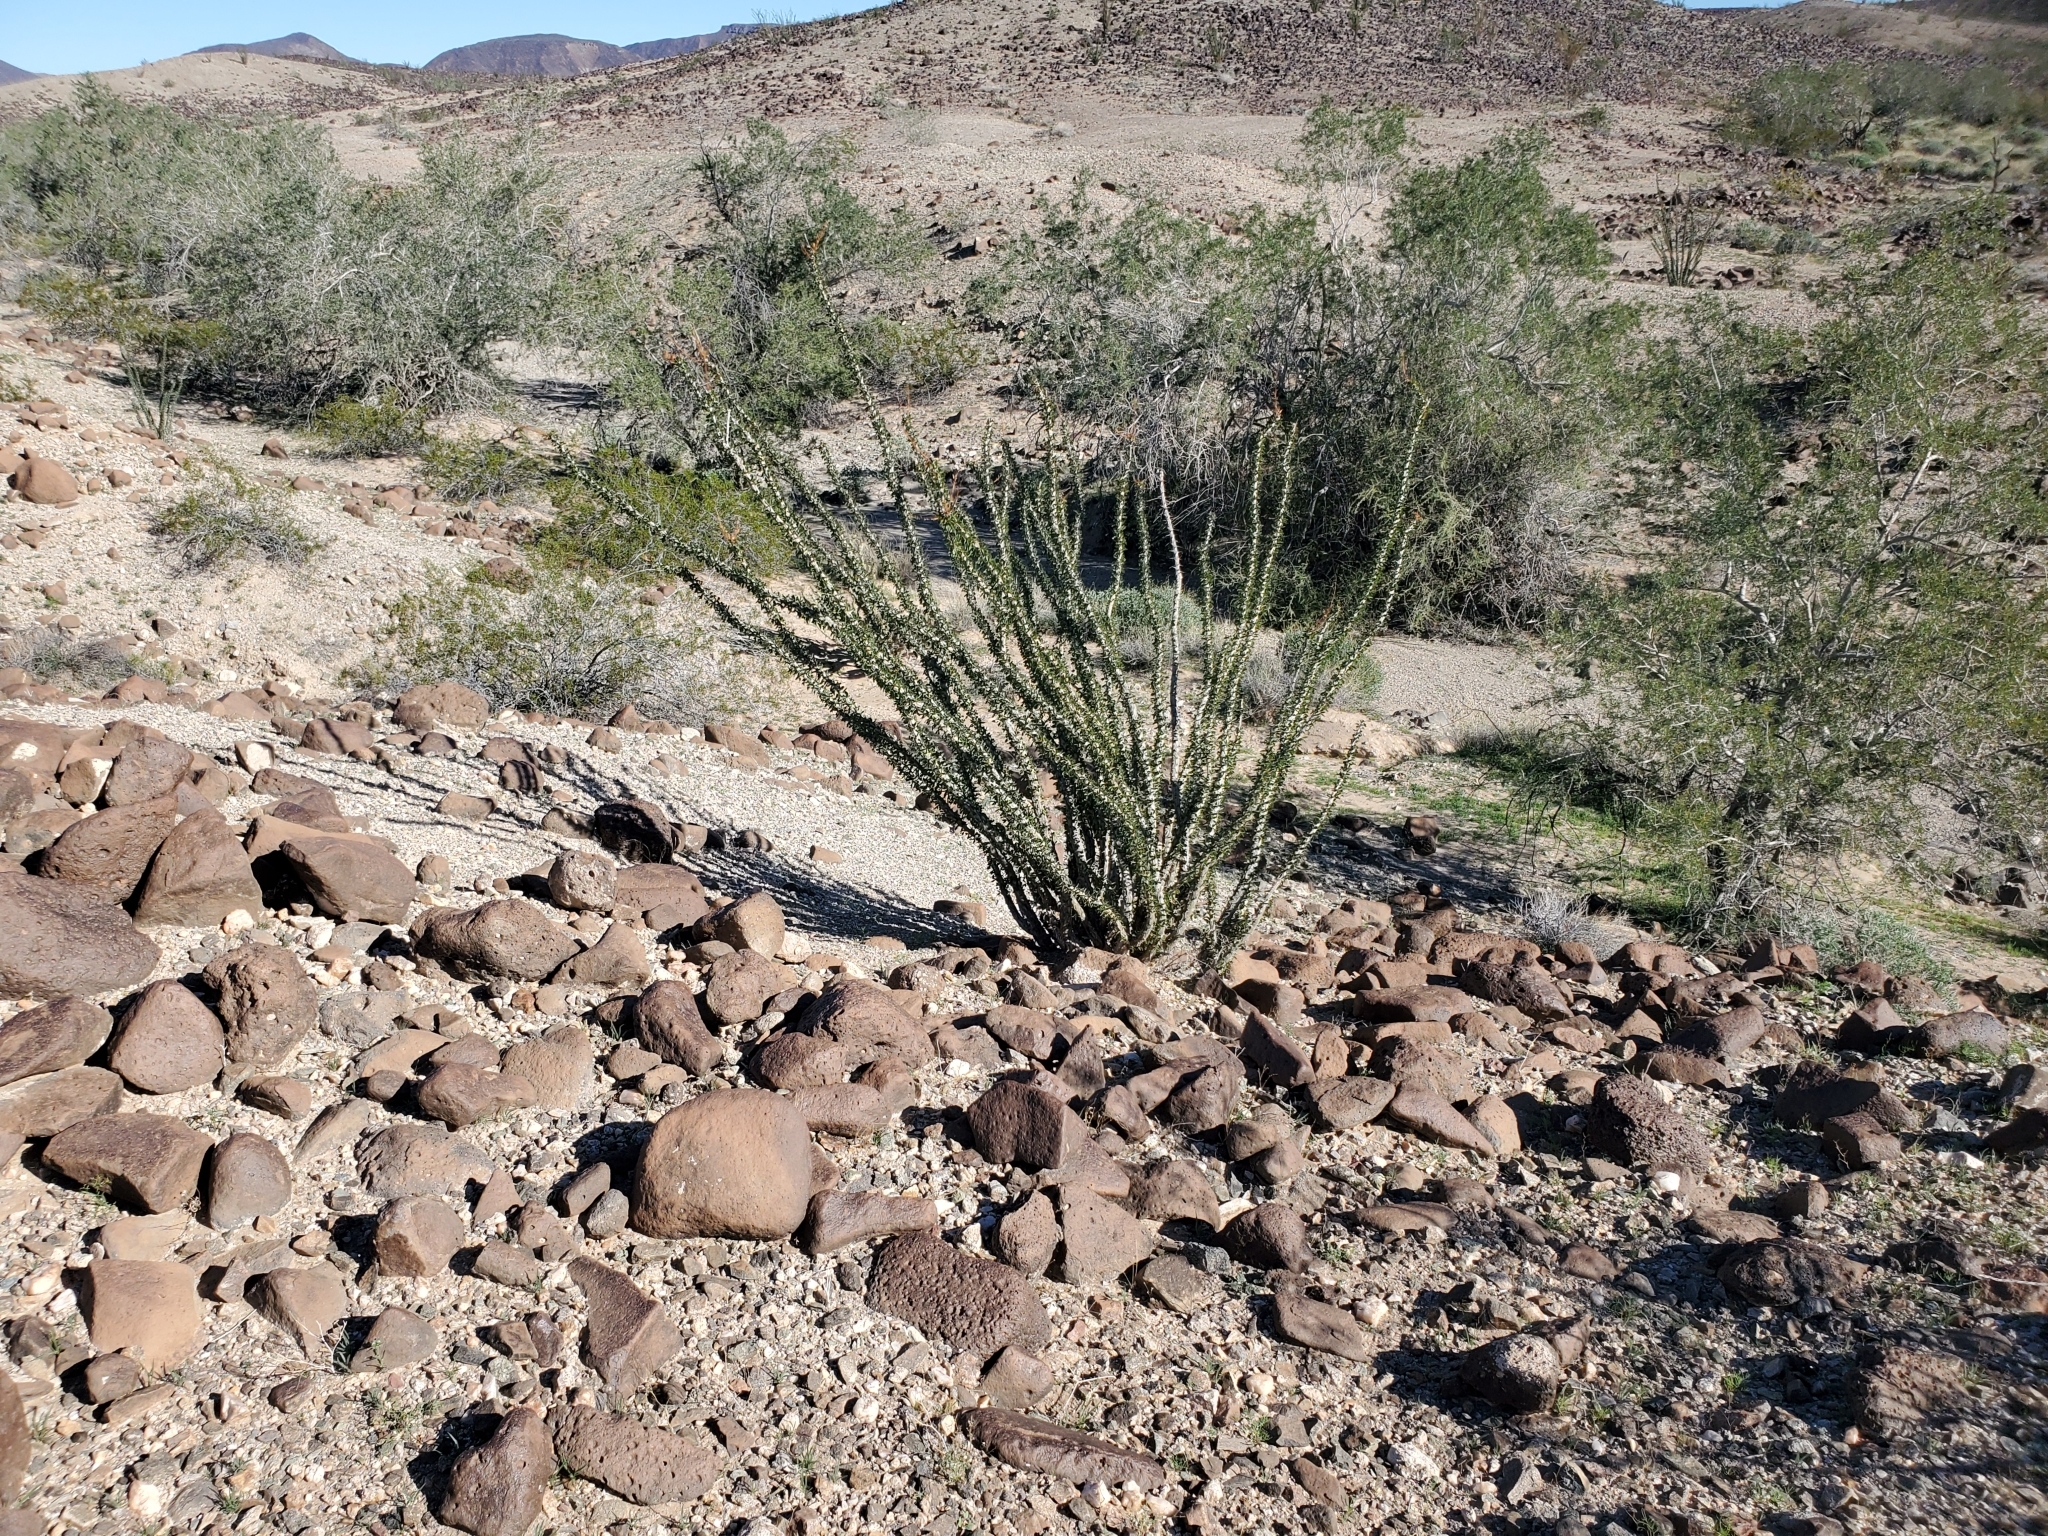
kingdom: Plantae
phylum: Tracheophyta
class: Magnoliopsida
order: Ericales
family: Fouquieriaceae
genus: Fouquieria
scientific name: Fouquieria splendens
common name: Vine-cactus
